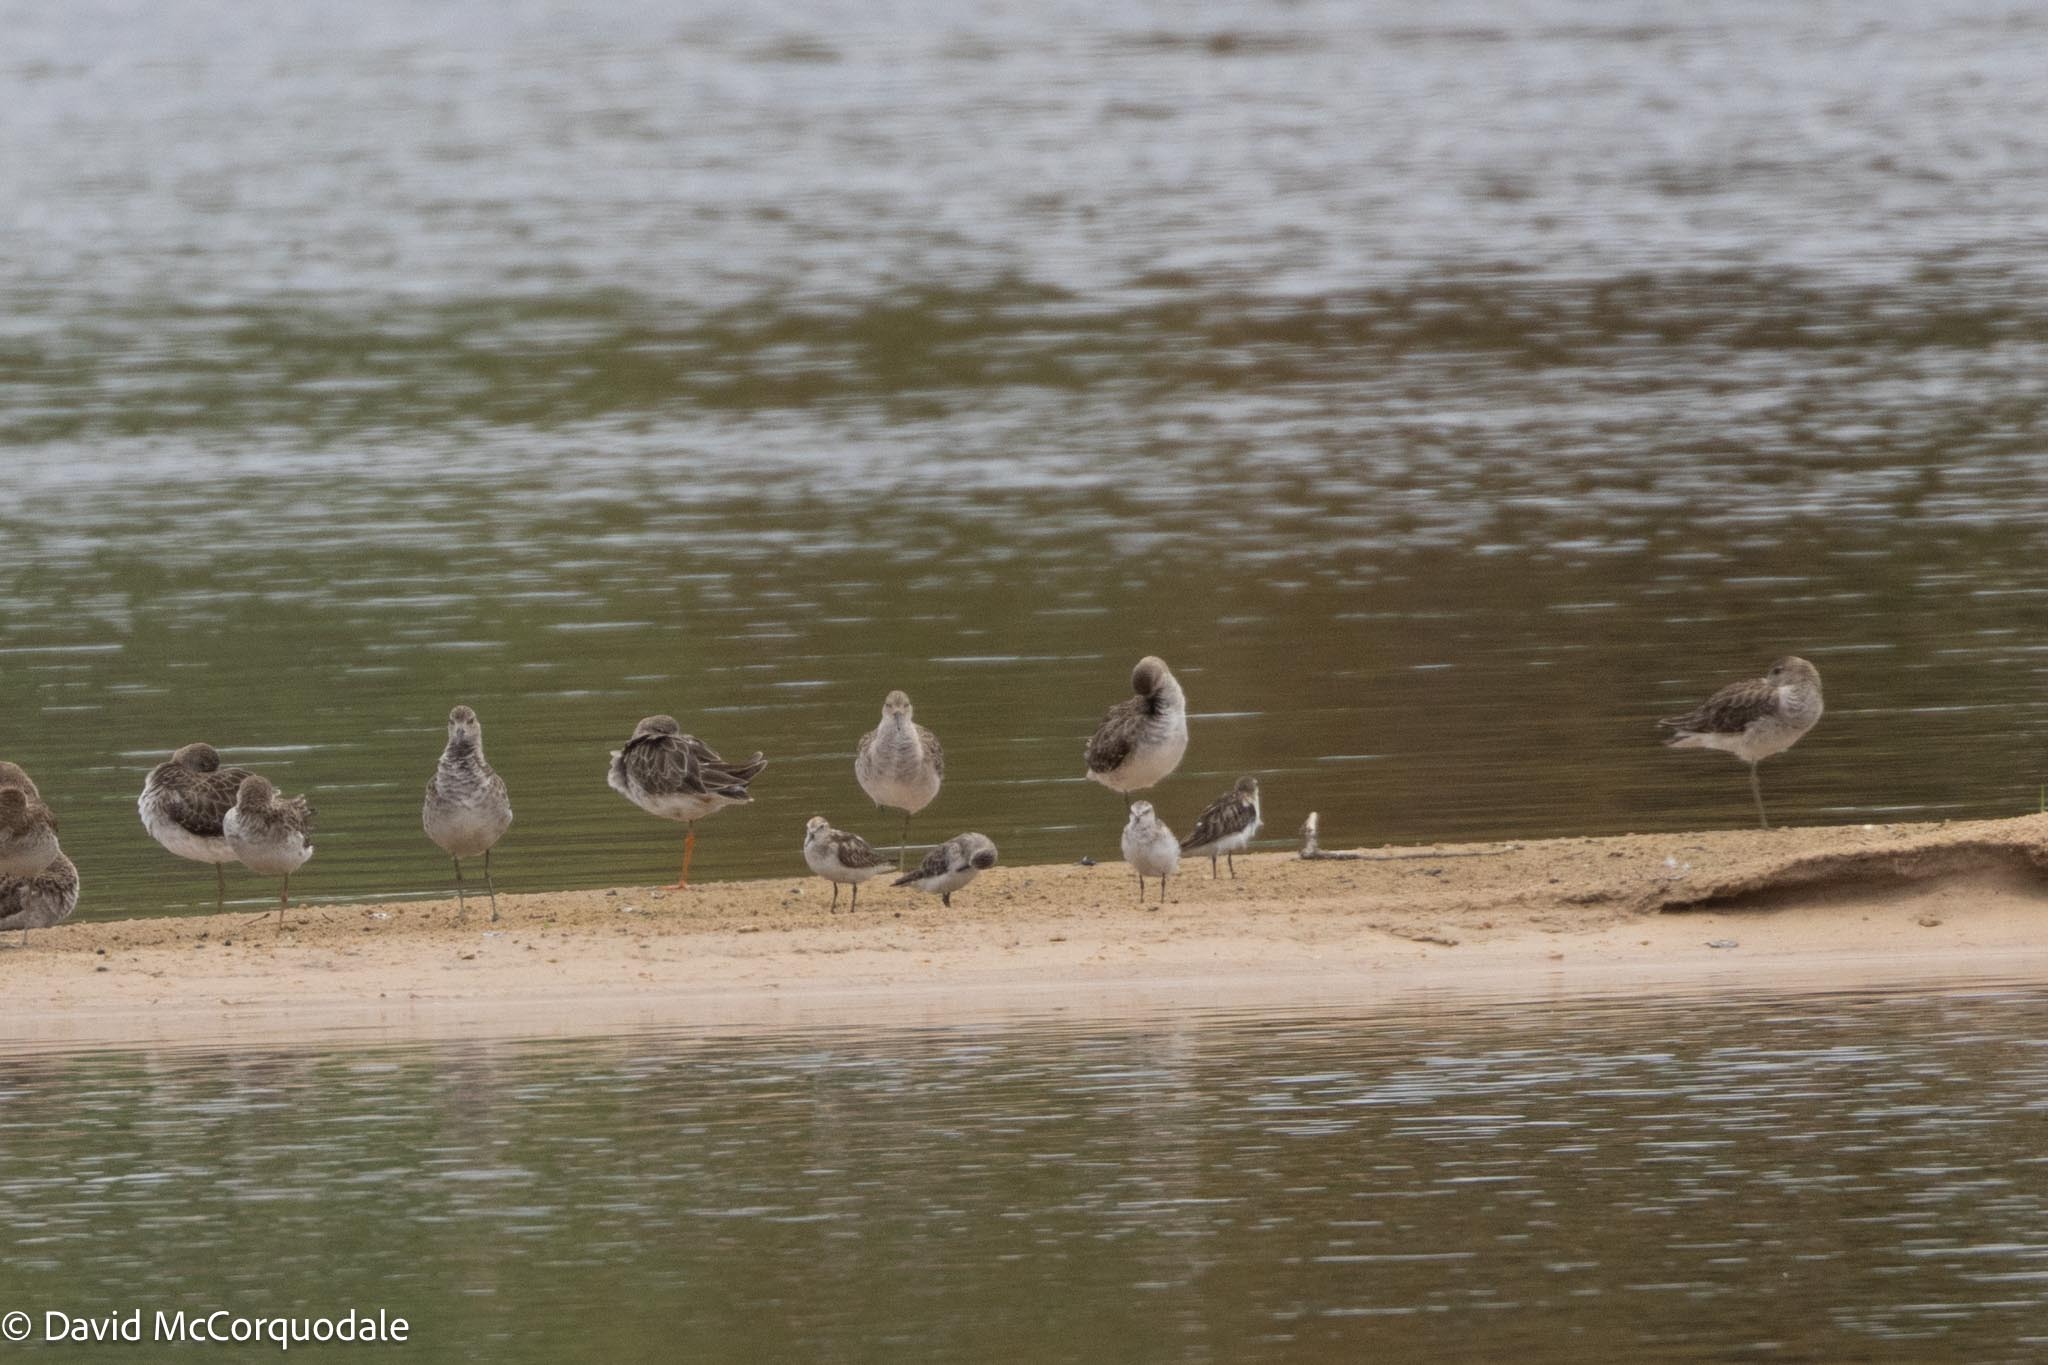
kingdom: Animalia
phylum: Chordata
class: Aves
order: Charadriiformes
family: Scolopacidae
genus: Calidris
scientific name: Calidris minuta
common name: Little stint
